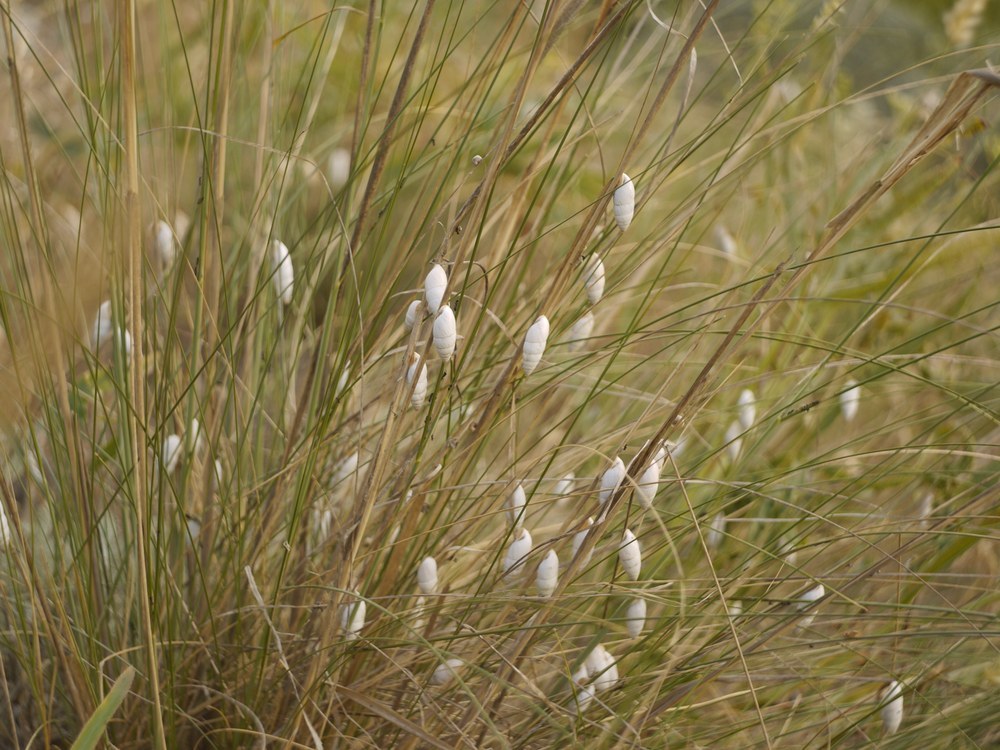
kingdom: Animalia
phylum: Mollusca
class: Gastropoda
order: Stylommatophora
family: Enidae
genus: Brephulopsis
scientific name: Brephulopsis cylindrica
